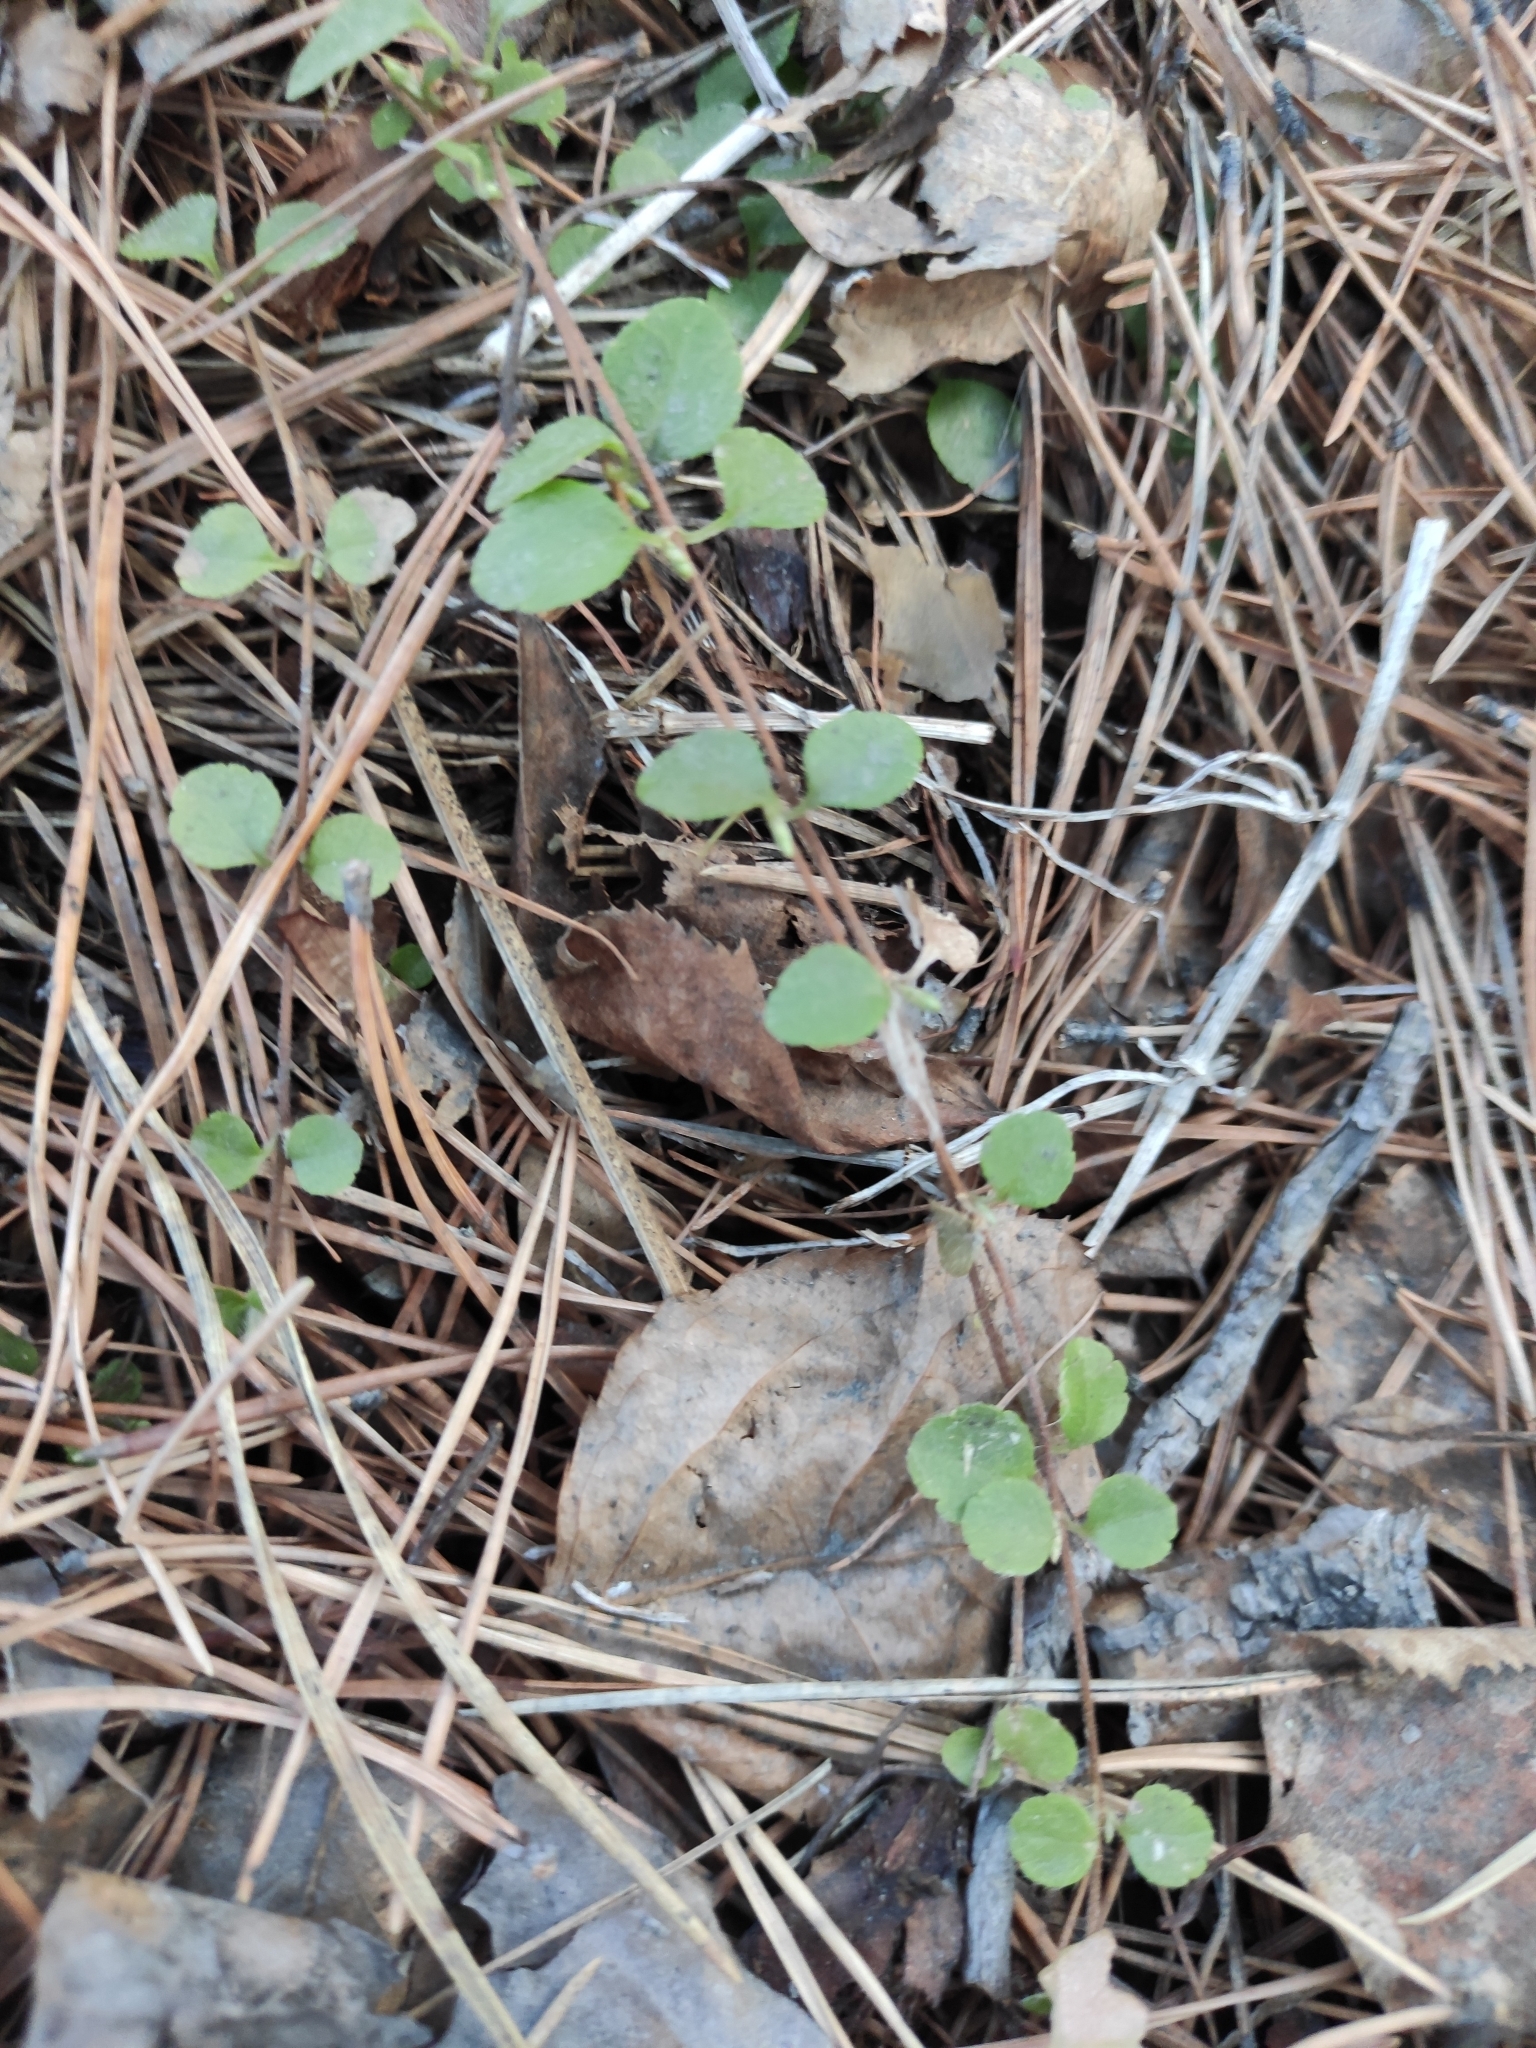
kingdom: Plantae
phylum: Tracheophyta
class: Magnoliopsida
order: Dipsacales
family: Caprifoliaceae
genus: Linnaea
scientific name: Linnaea borealis
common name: Twinflower
